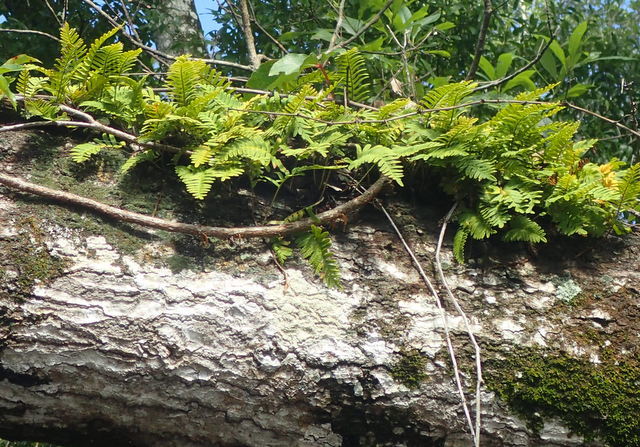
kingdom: Plantae
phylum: Tracheophyta
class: Polypodiopsida
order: Polypodiales
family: Polypodiaceae
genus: Pleopeltis
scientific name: Pleopeltis michauxiana
